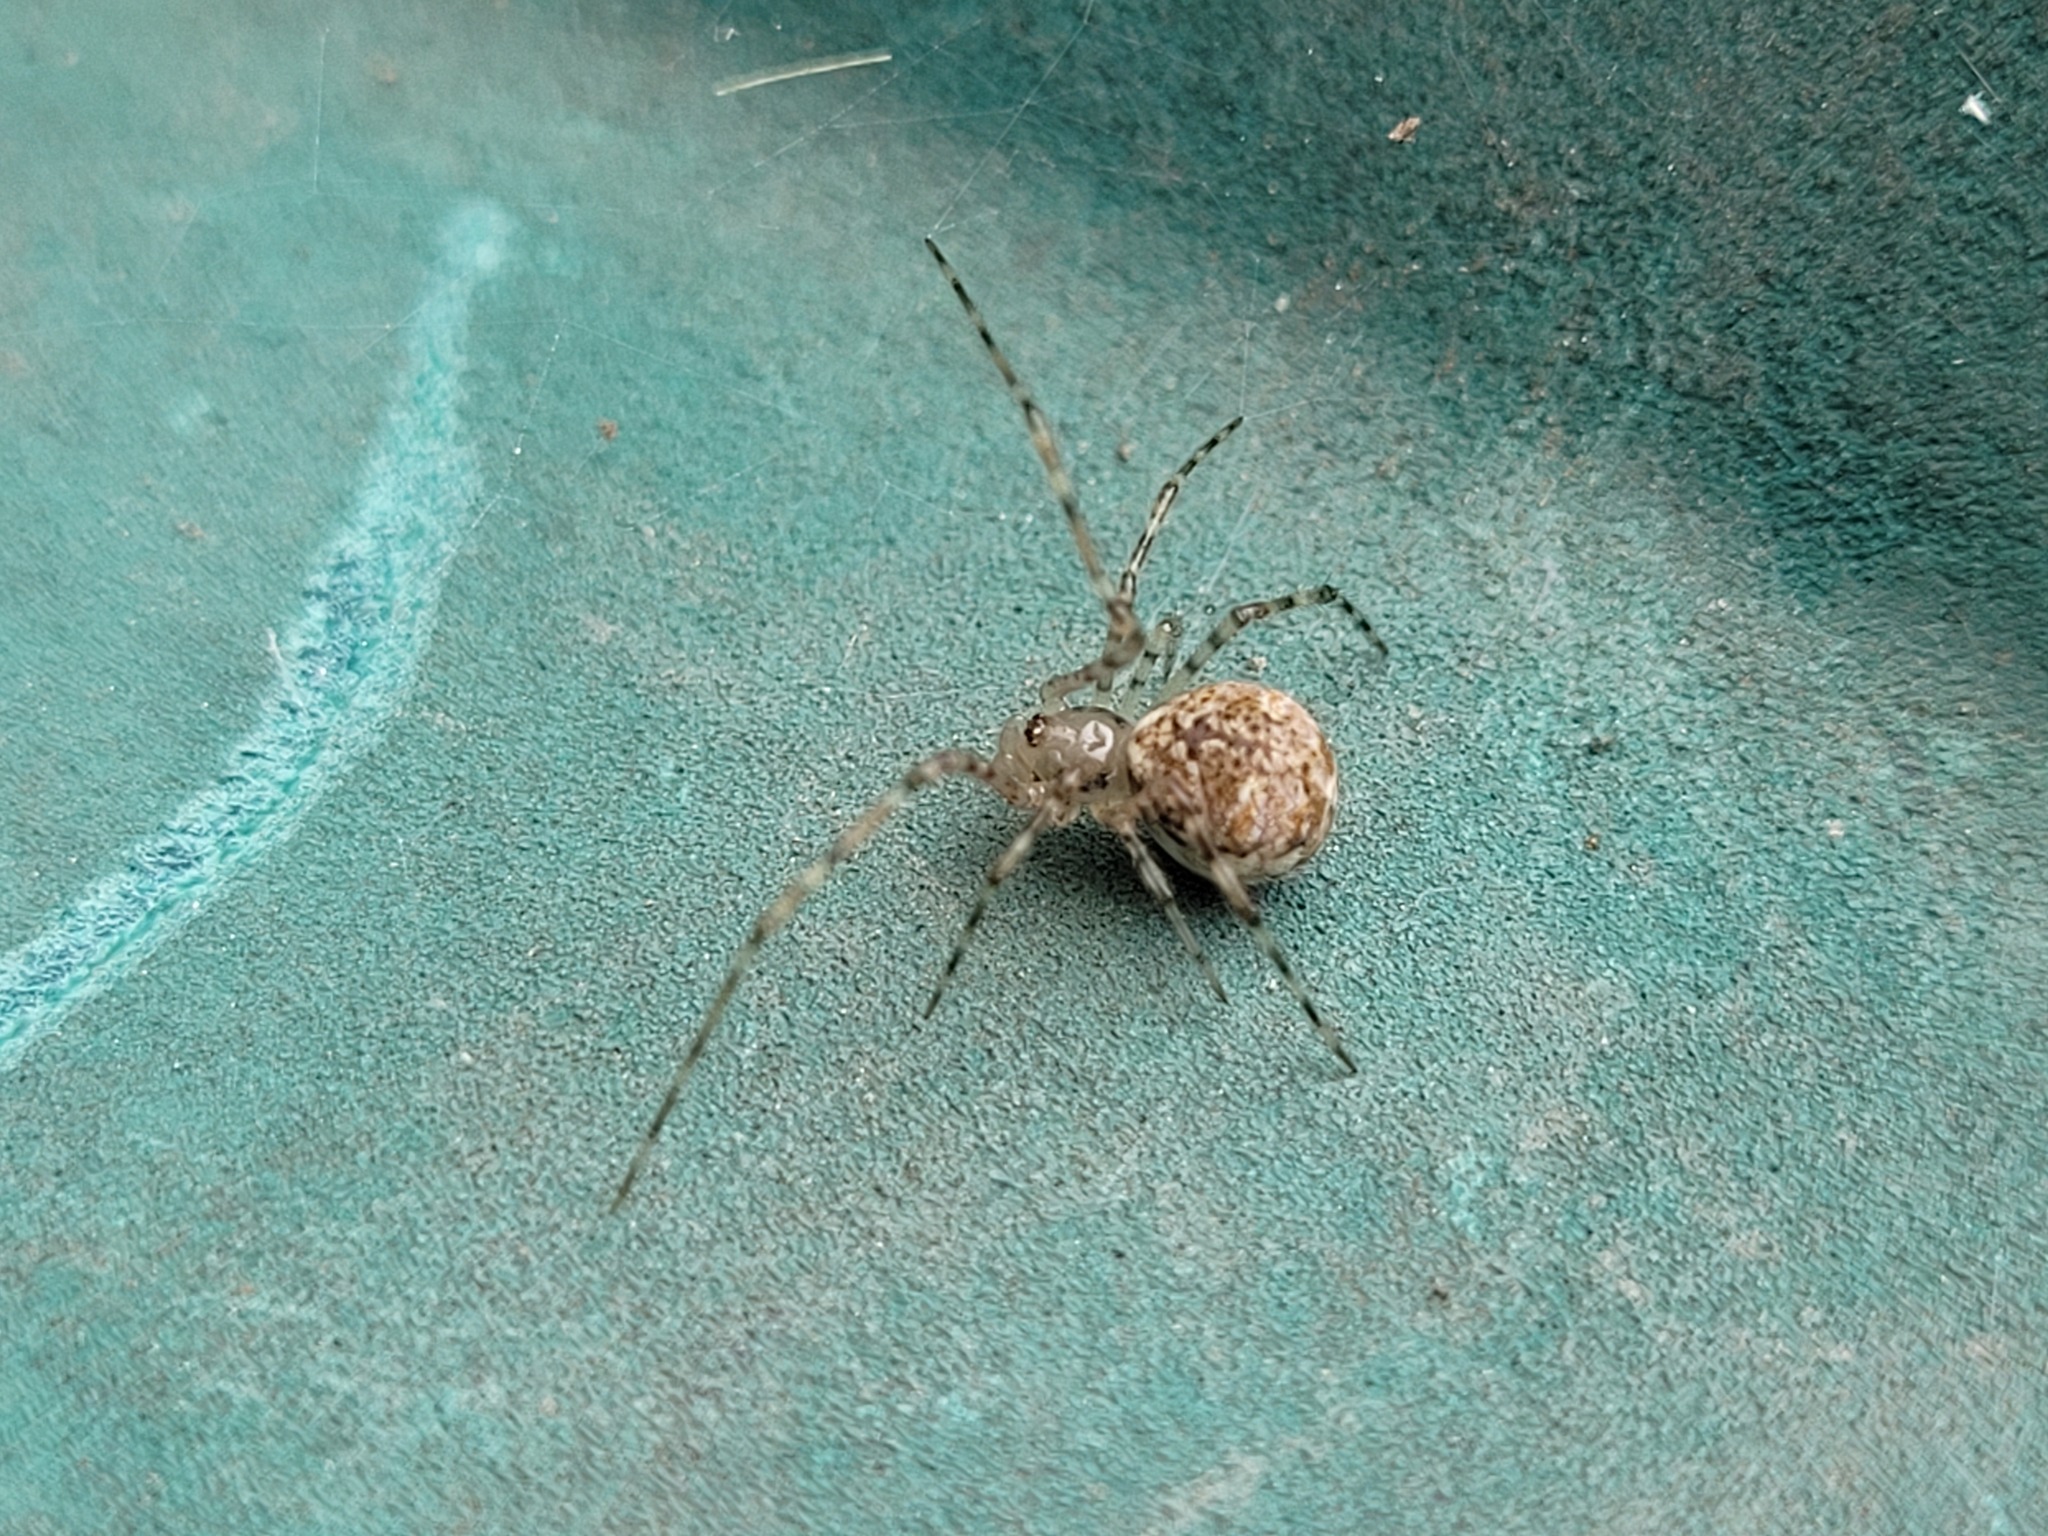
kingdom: Animalia
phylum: Arthropoda
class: Arachnida
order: Araneae
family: Theridiidae
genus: Cryptachaea
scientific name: Cryptachaea gigantipes
